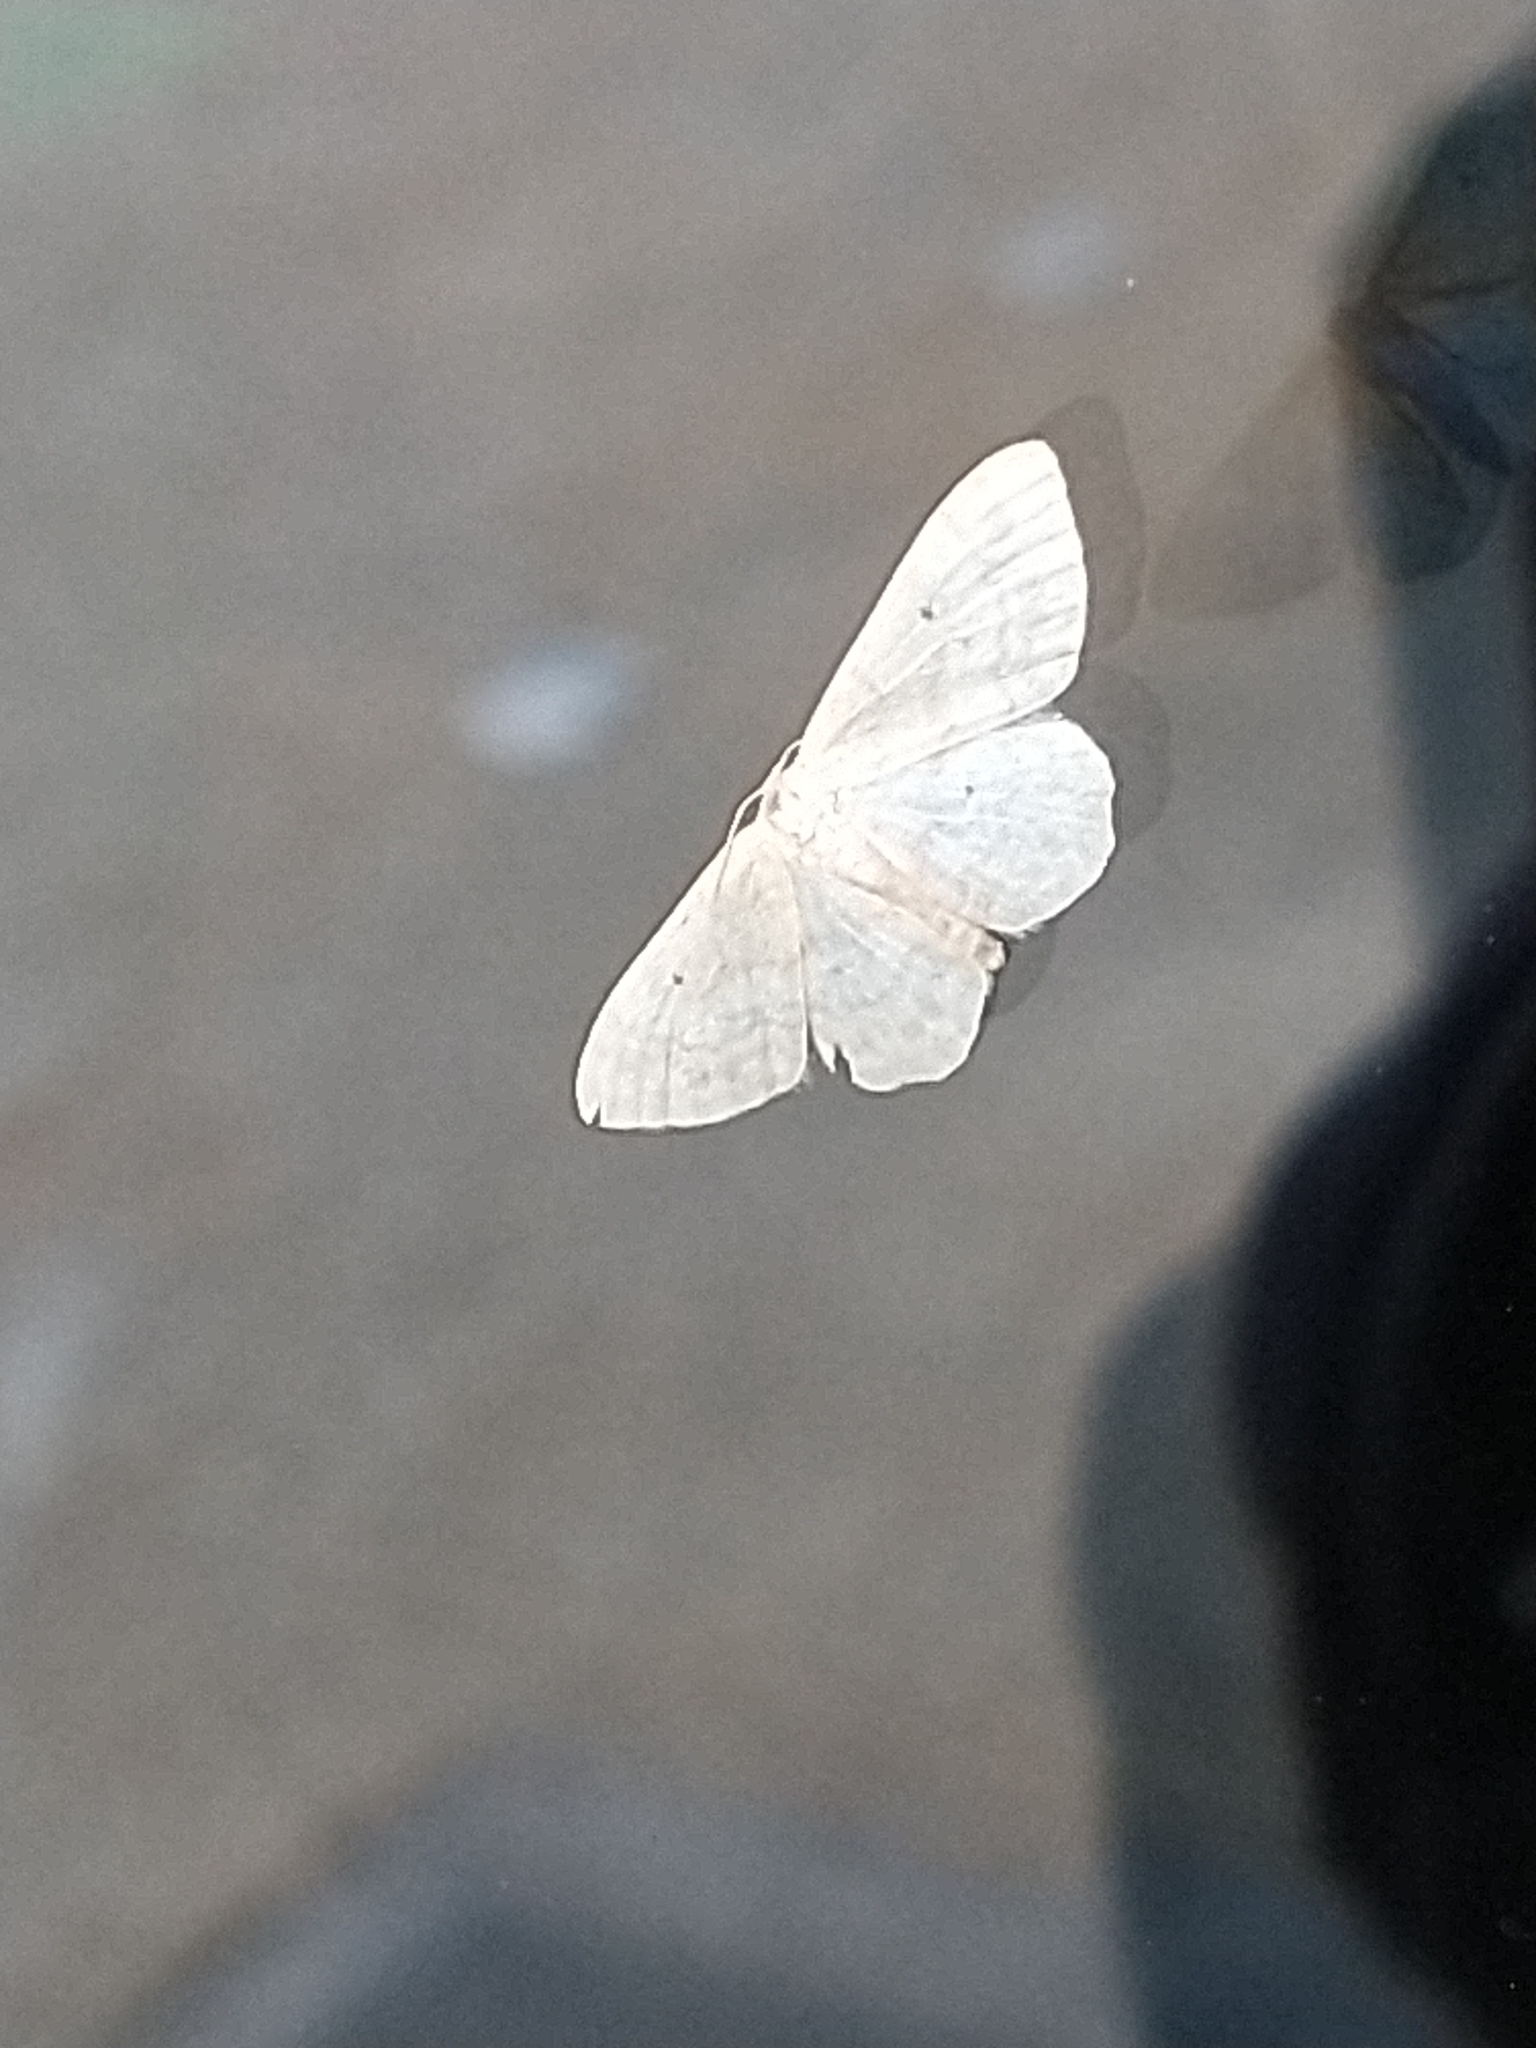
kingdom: Animalia
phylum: Arthropoda
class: Insecta
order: Lepidoptera
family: Geometridae
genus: Idaea
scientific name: Idaea biselata
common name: Small fan-footed wave
